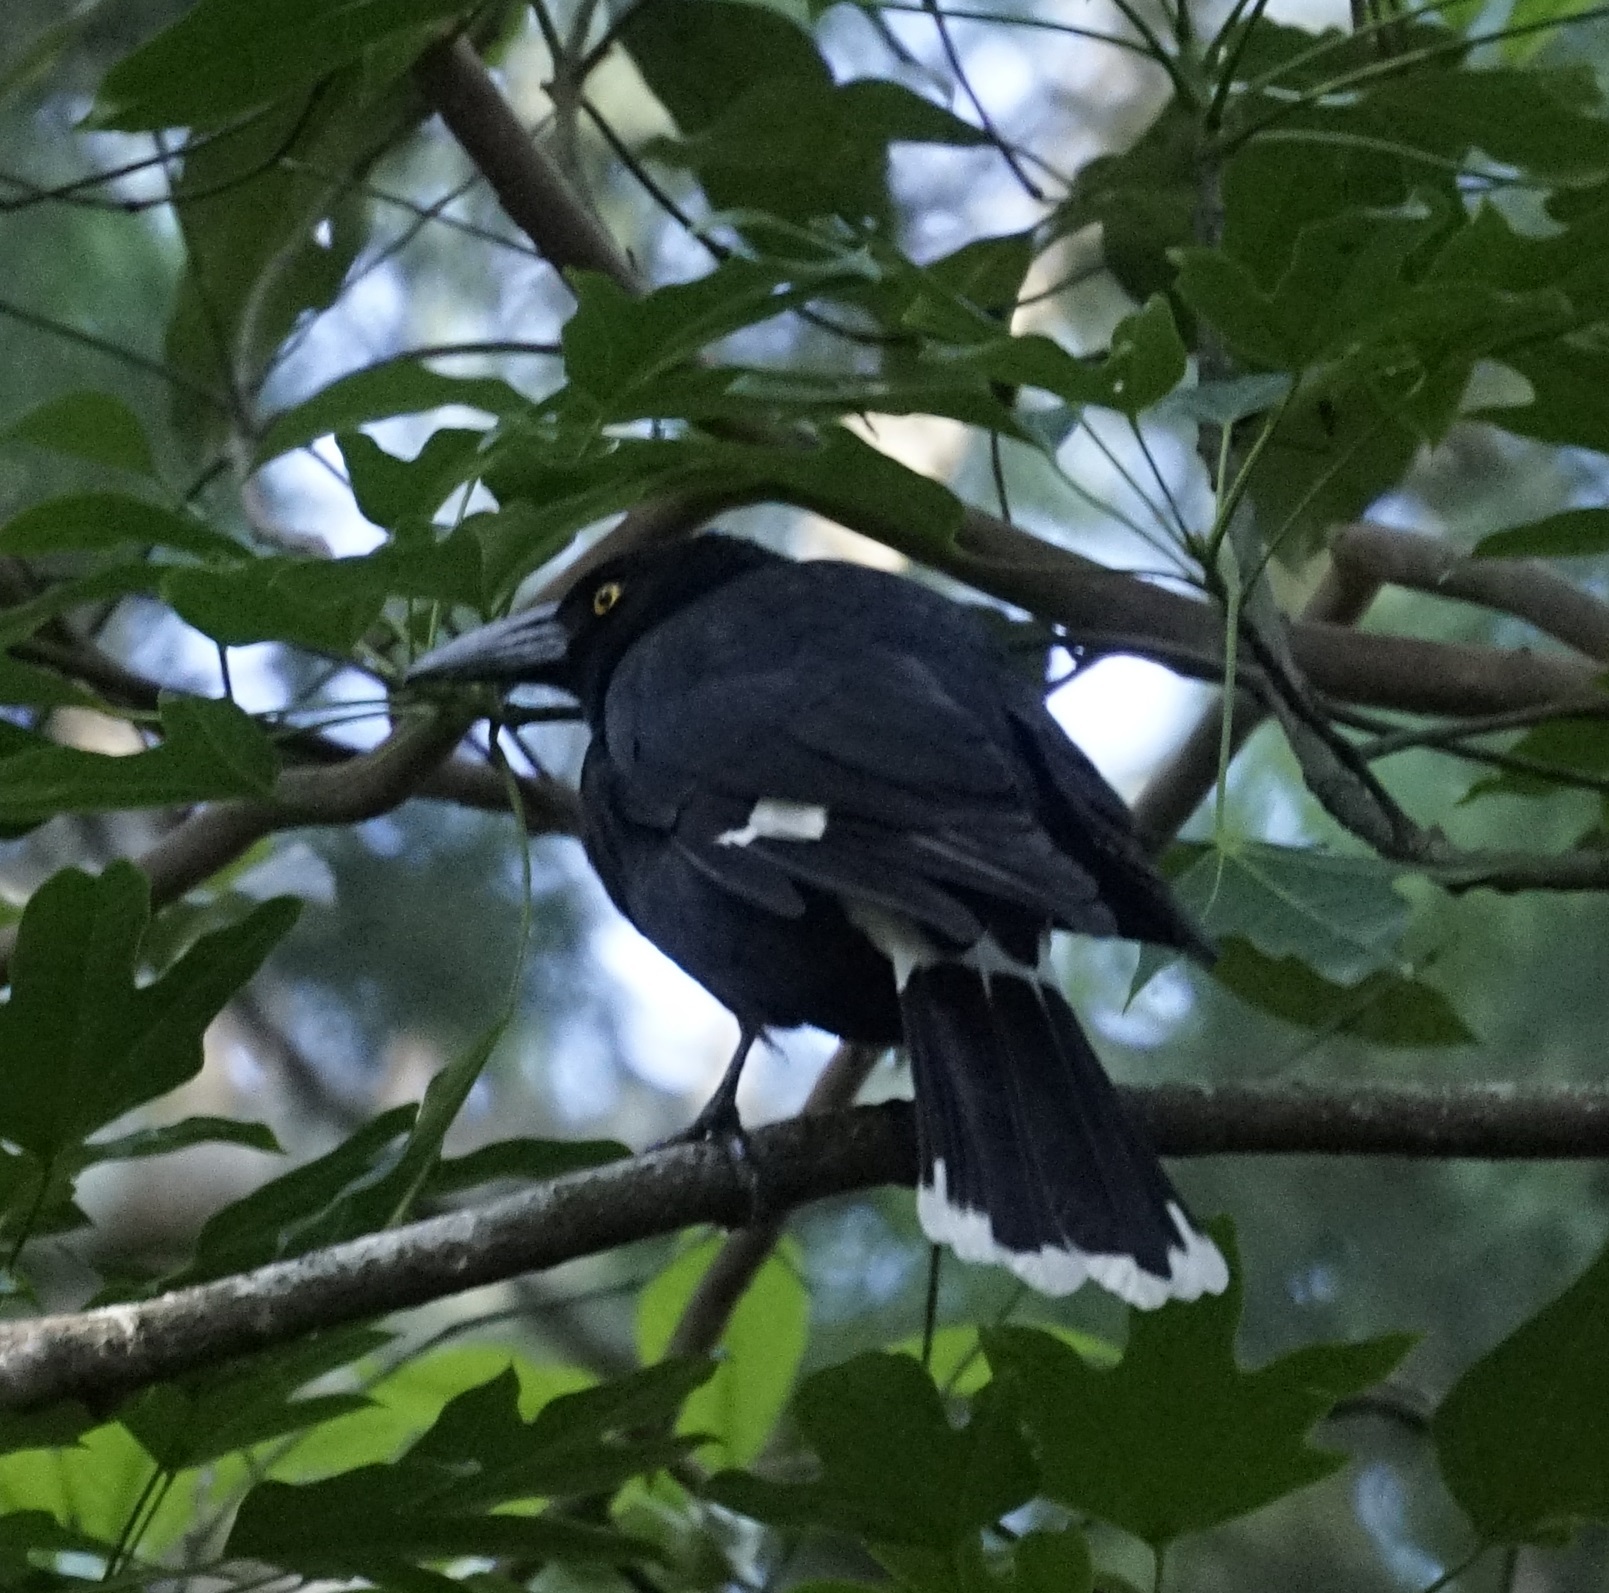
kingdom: Animalia
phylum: Chordata
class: Aves
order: Passeriformes
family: Cracticidae
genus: Strepera
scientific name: Strepera graculina
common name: Pied currawong
